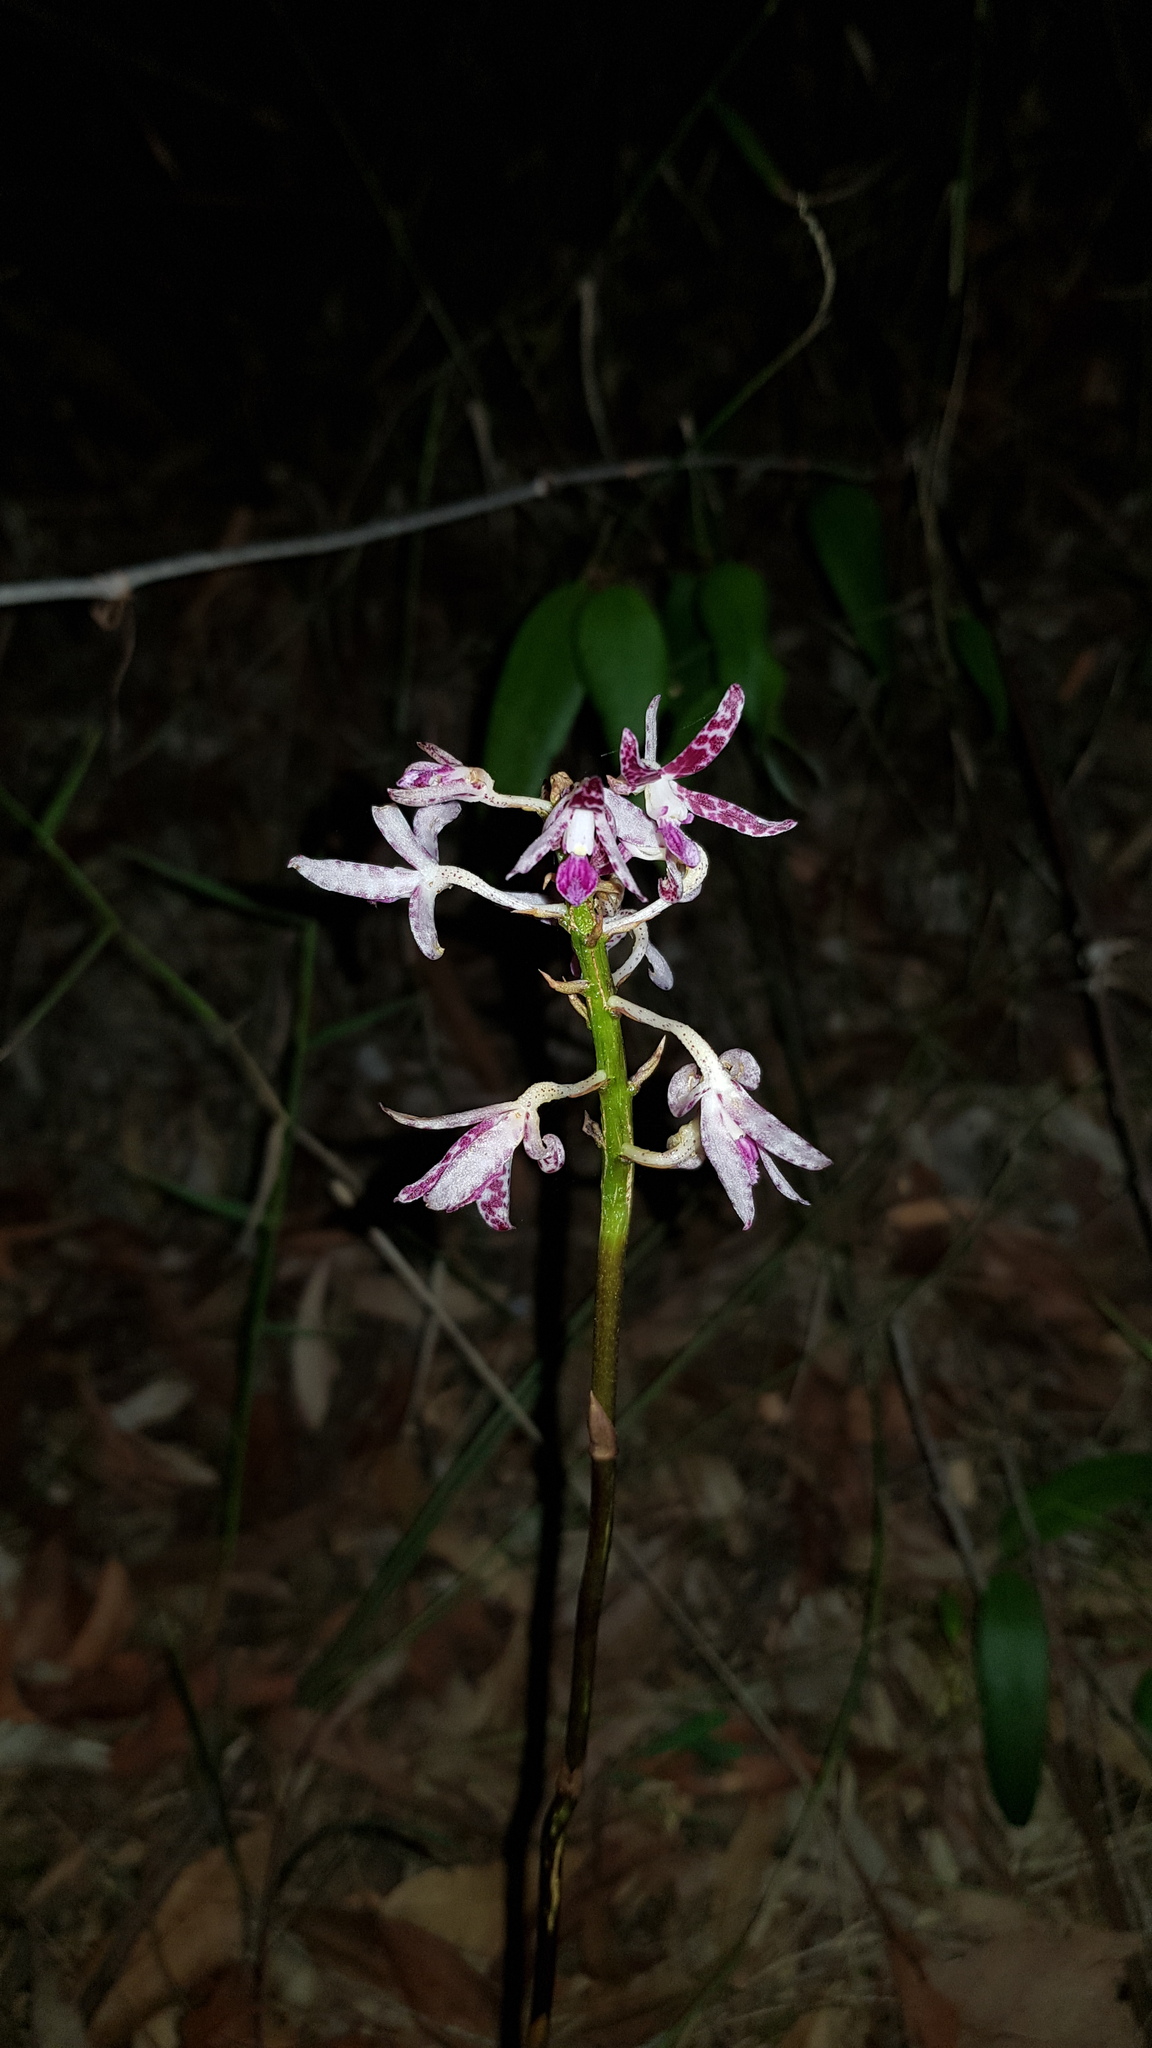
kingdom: Plantae
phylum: Tracheophyta
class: Liliopsida
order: Asparagales
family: Orchidaceae
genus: Dipodium
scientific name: Dipodium variegatum
